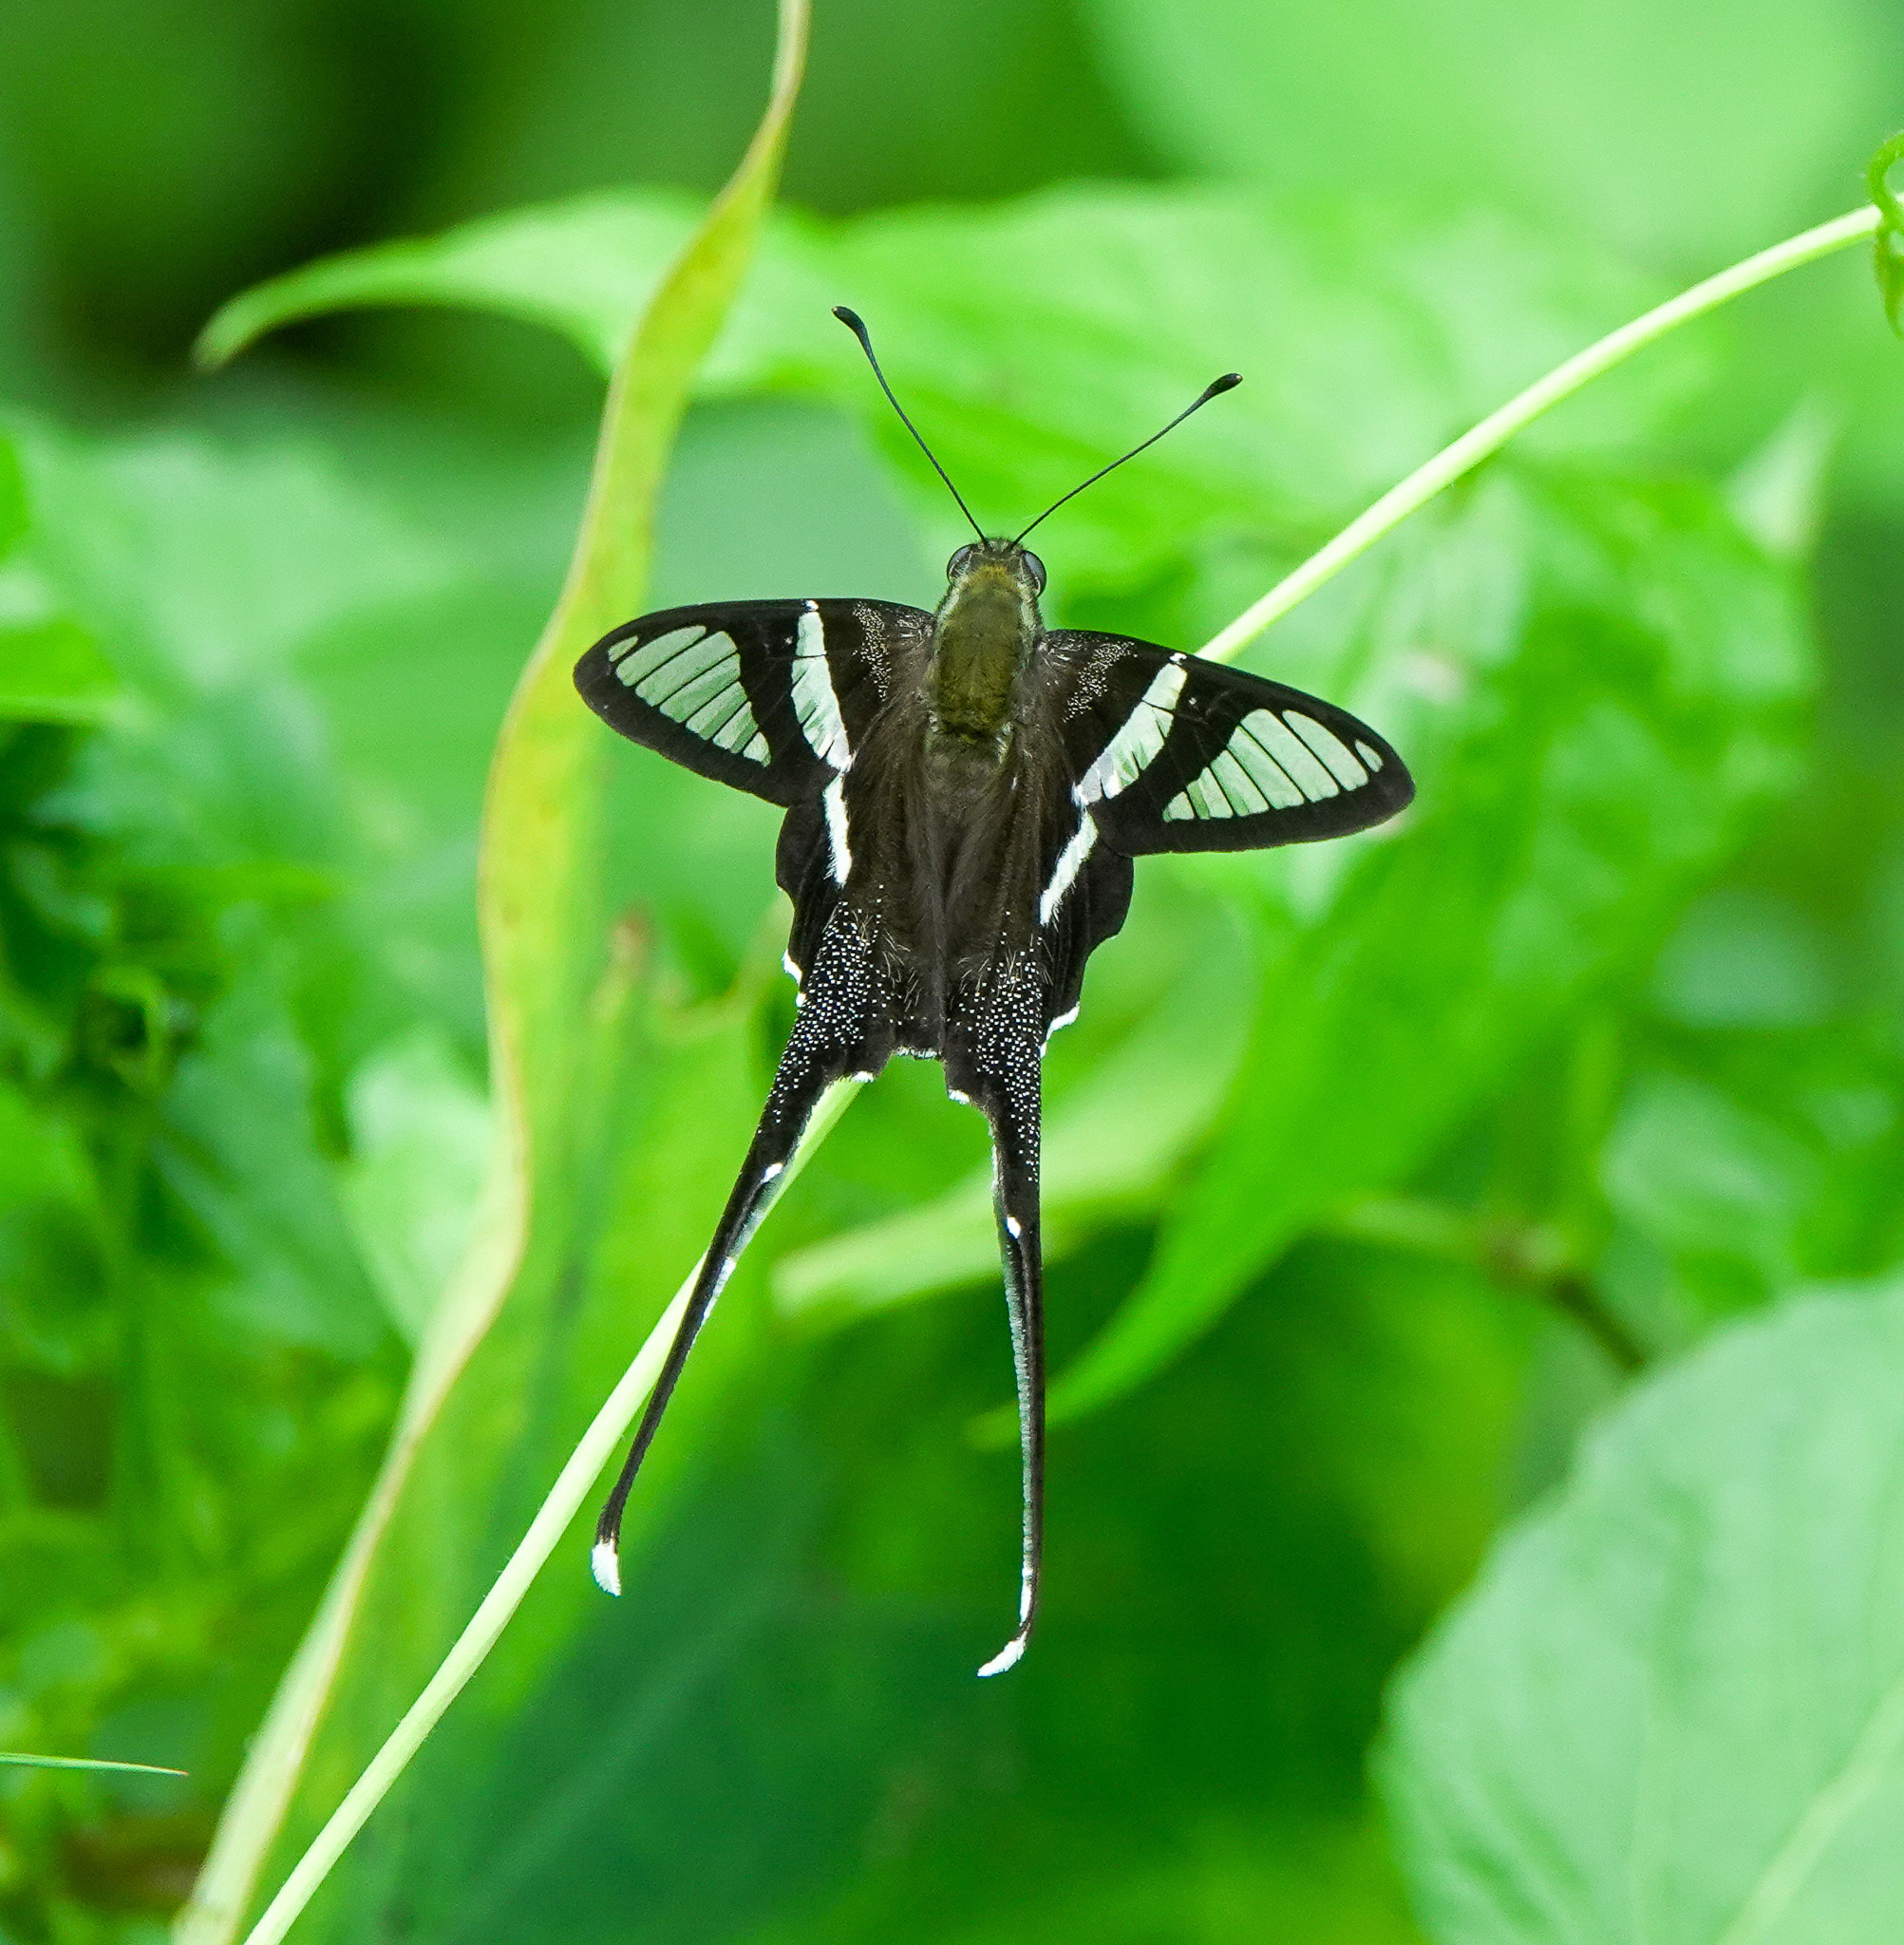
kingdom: Animalia
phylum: Arthropoda
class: Insecta
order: Lepidoptera
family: Papilionidae
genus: Lamproptera
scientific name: Lamproptera curius
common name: White dragontail
